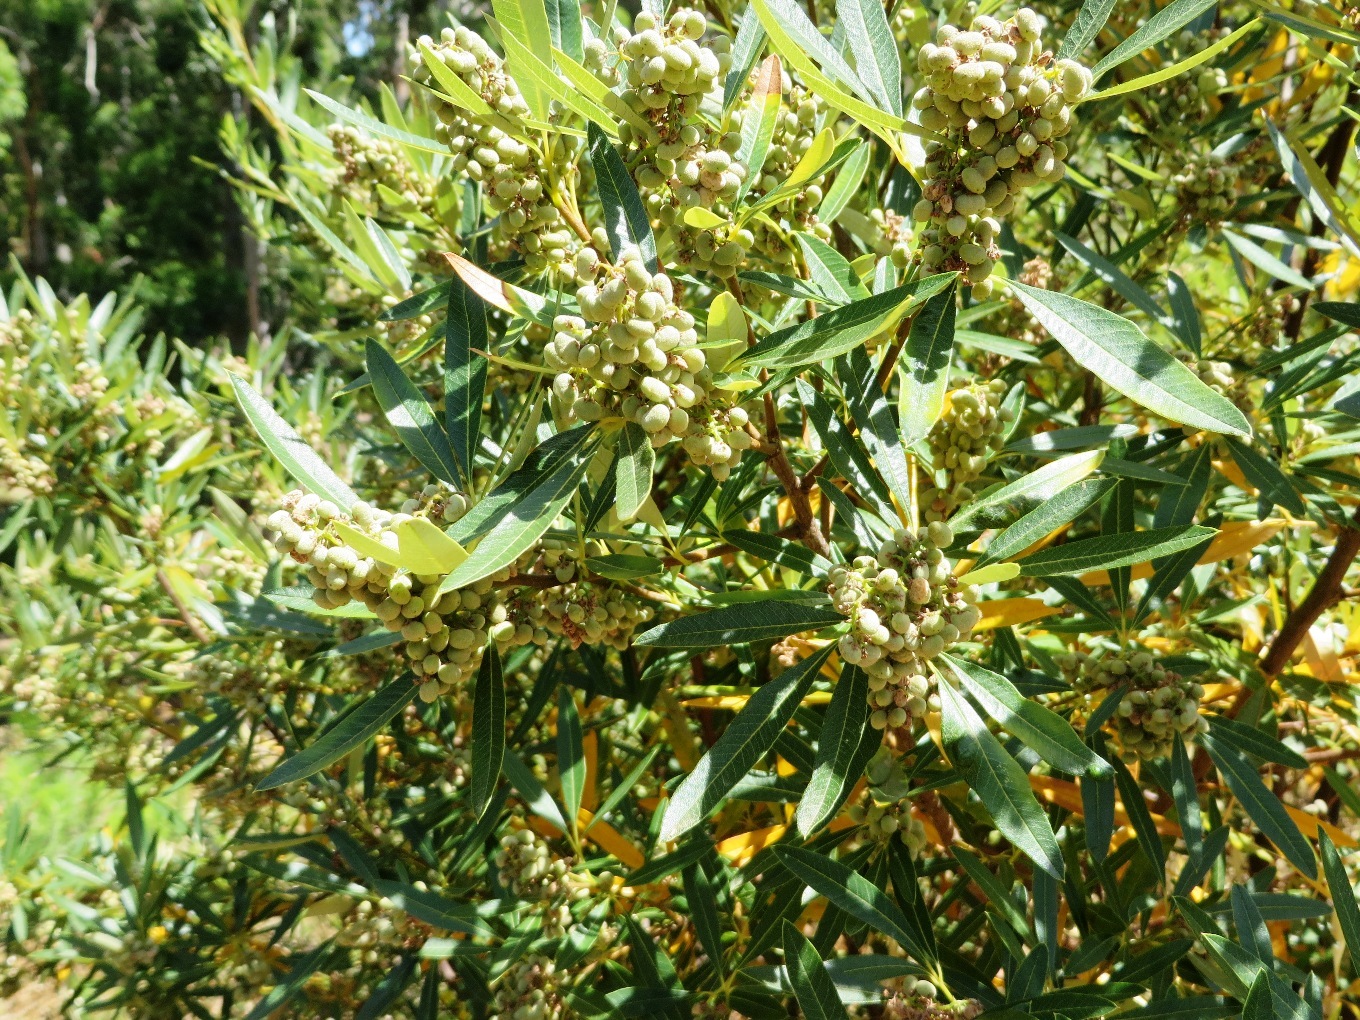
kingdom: Plantae
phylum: Tracheophyta
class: Magnoliopsida
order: Sapindales
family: Anacardiaceae
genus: Searsia
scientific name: Searsia angustifolia
